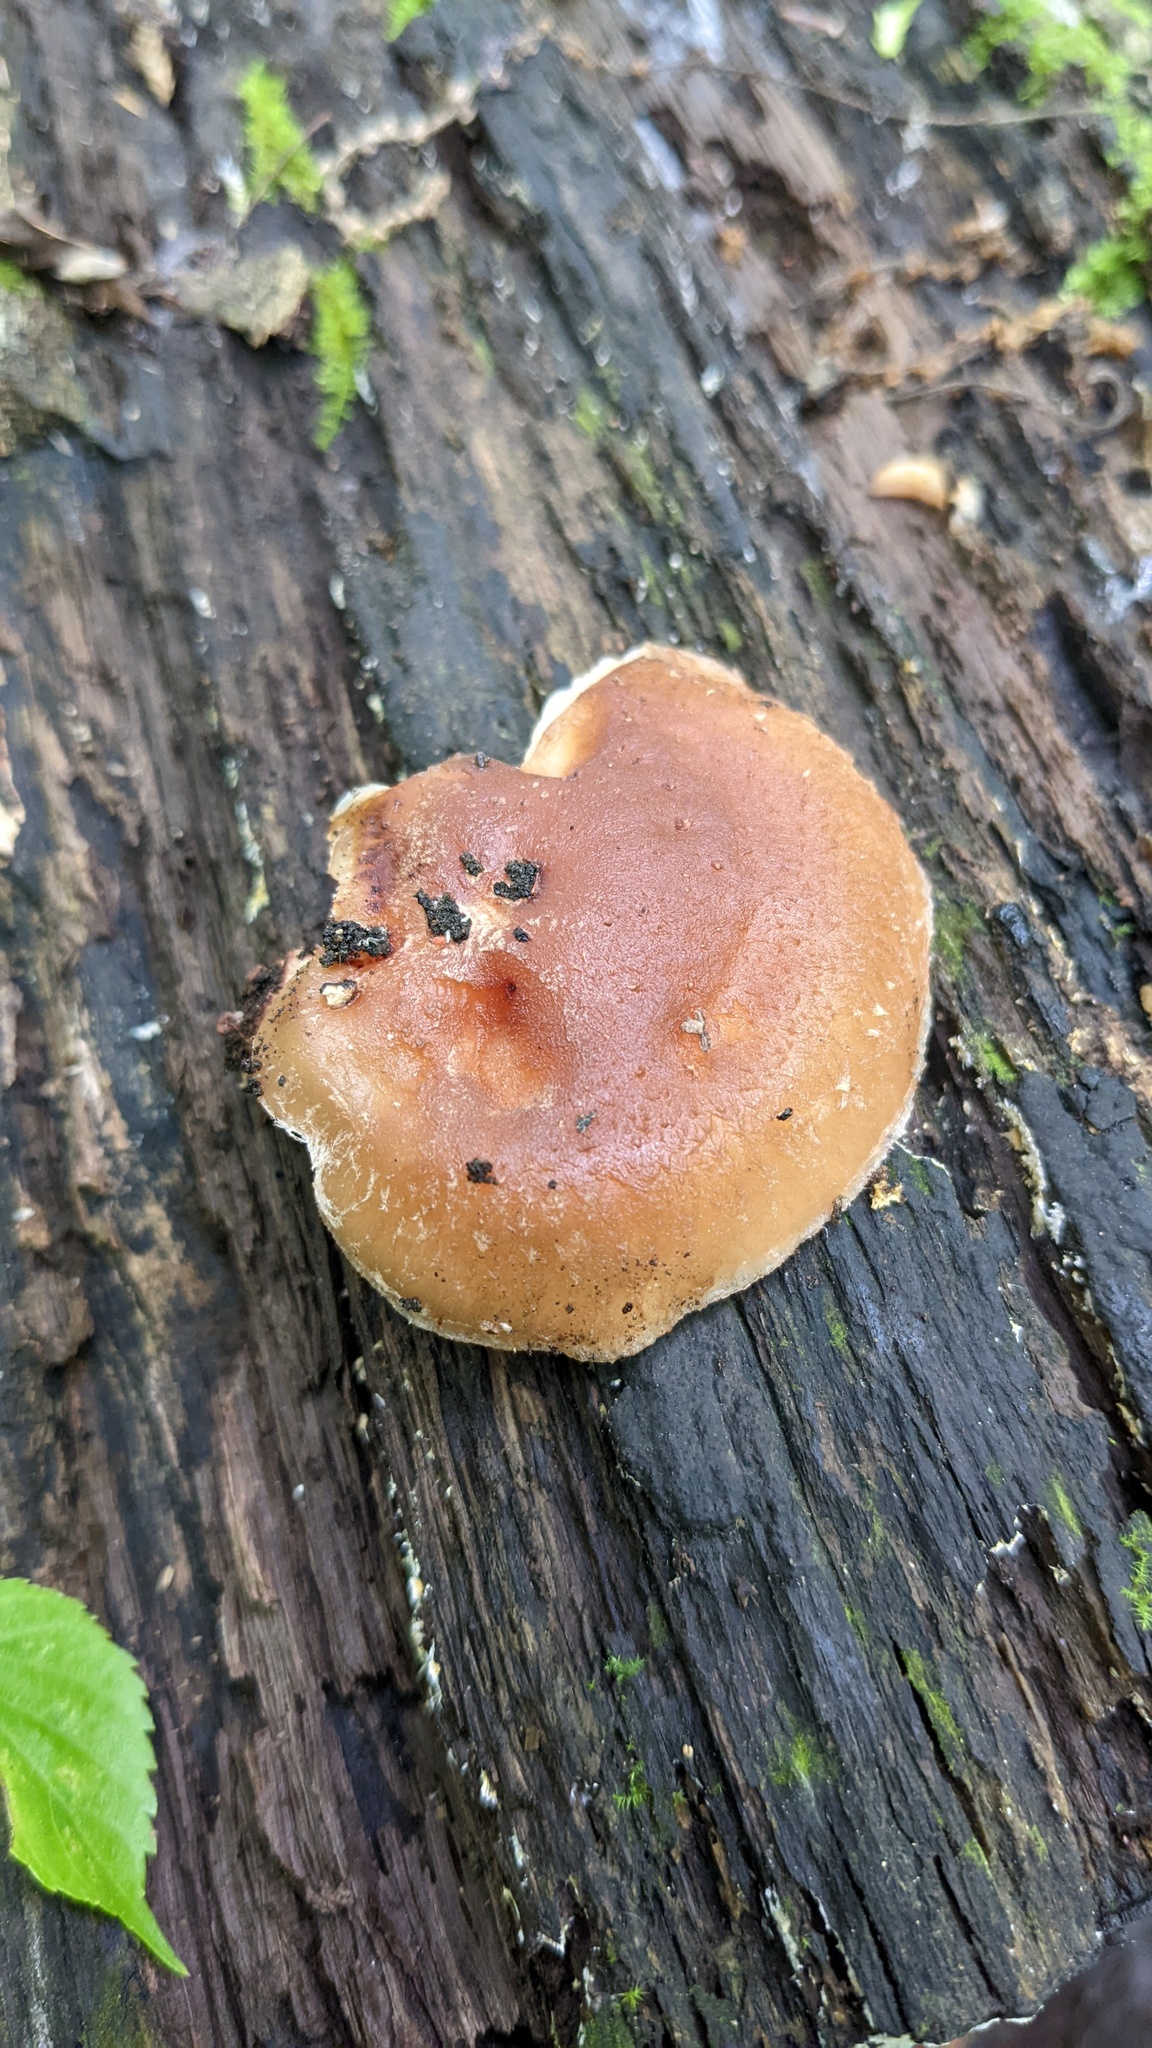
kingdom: Fungi
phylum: Basidiomycota
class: Agaricomycetes
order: Agaricales
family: Omphalotaceae
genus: Lentinula
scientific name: Lentinula edodes
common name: Shiitake
